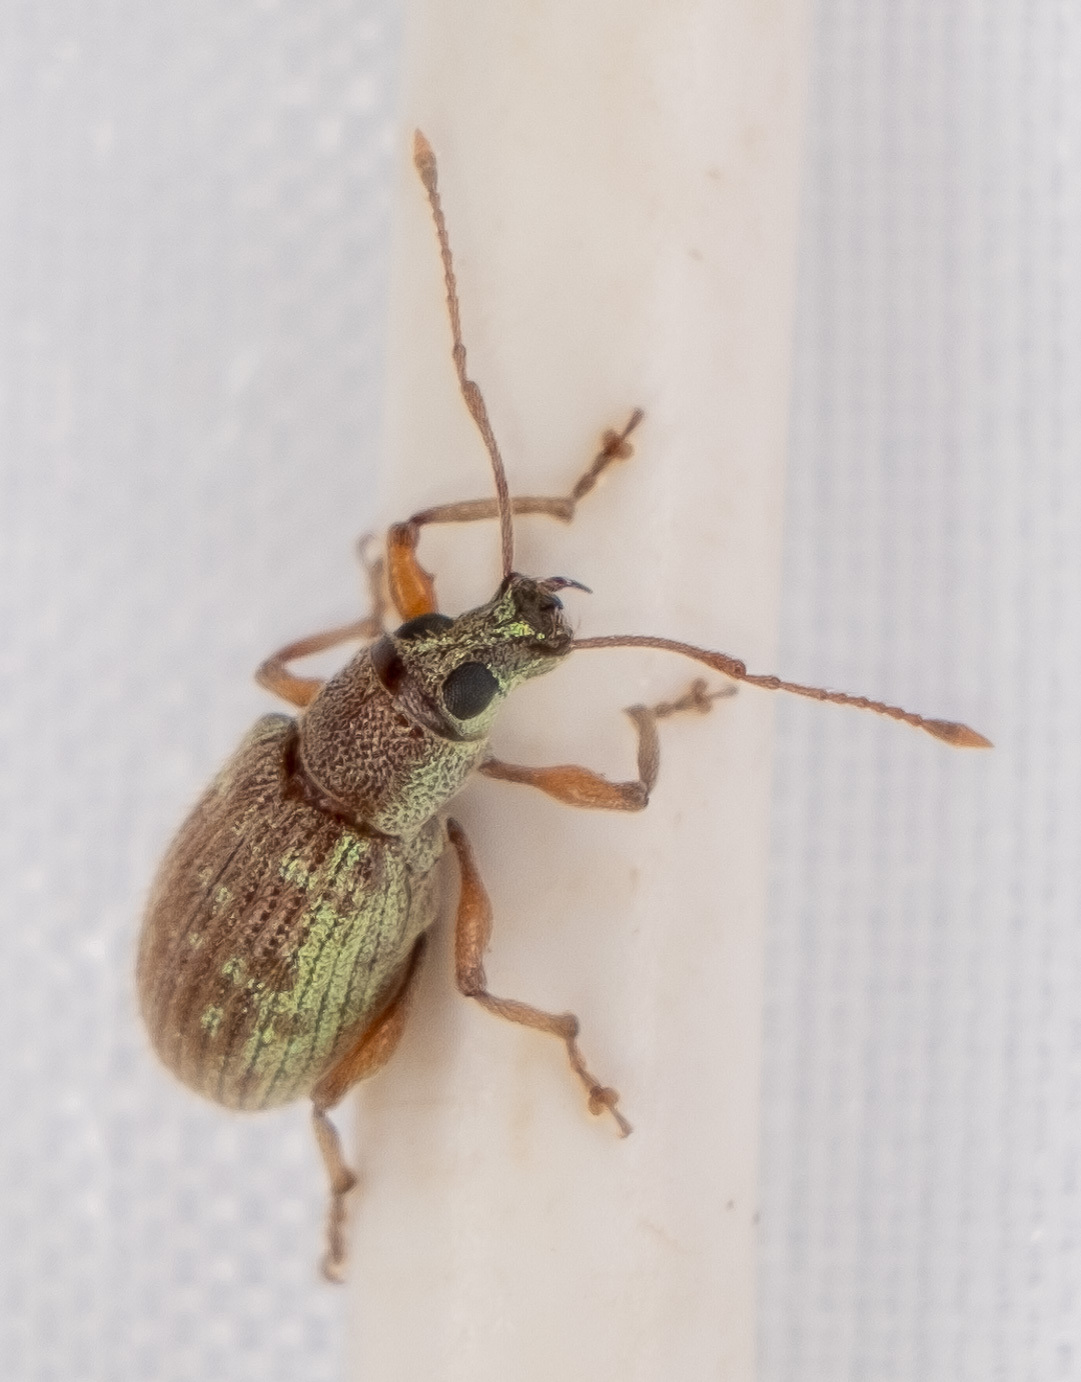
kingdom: Animalia
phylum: Arthropoda
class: Insecta
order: Coleoptera
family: Curculionidae
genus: Calomycterus
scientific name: Calomycterus setarius
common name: Weevil
